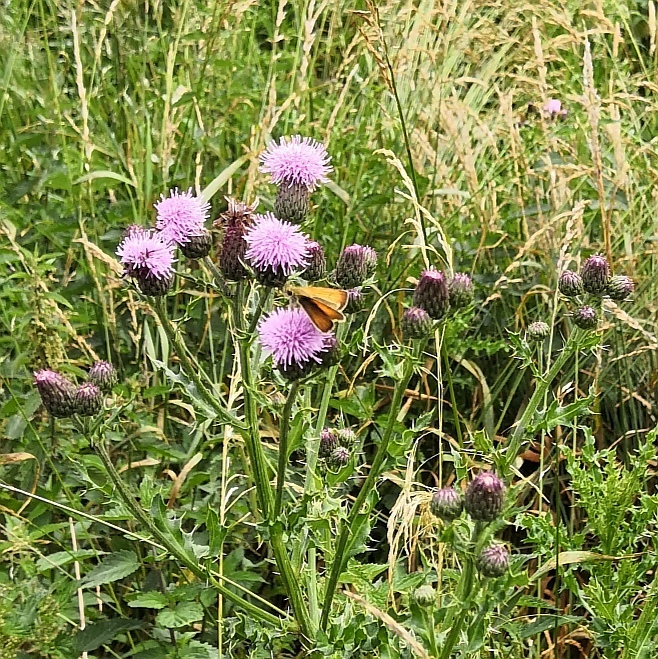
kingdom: Animalia
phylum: Arthropoda
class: Insecta
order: Lepidoptera
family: Hesperiidae
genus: Thymelicus
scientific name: Thymelicus lineola
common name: Essex skipper
